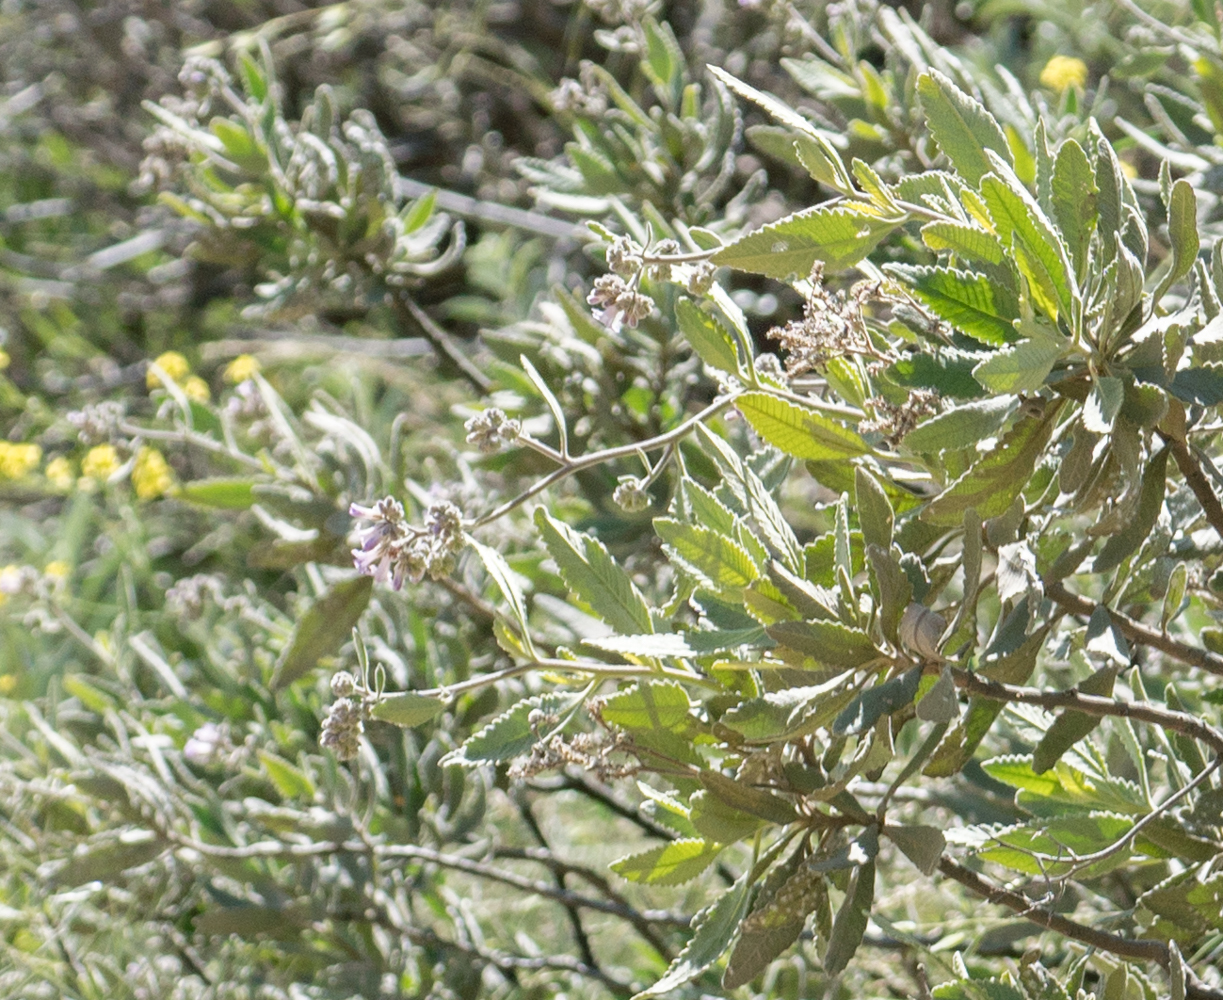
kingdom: Plantae
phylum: Tracheophyta
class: Magnoliopsida
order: Boraginales
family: Namaceae
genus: Eriodictyon
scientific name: Eriodictyon crassifolium
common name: Thick-leaf yerba-santa
